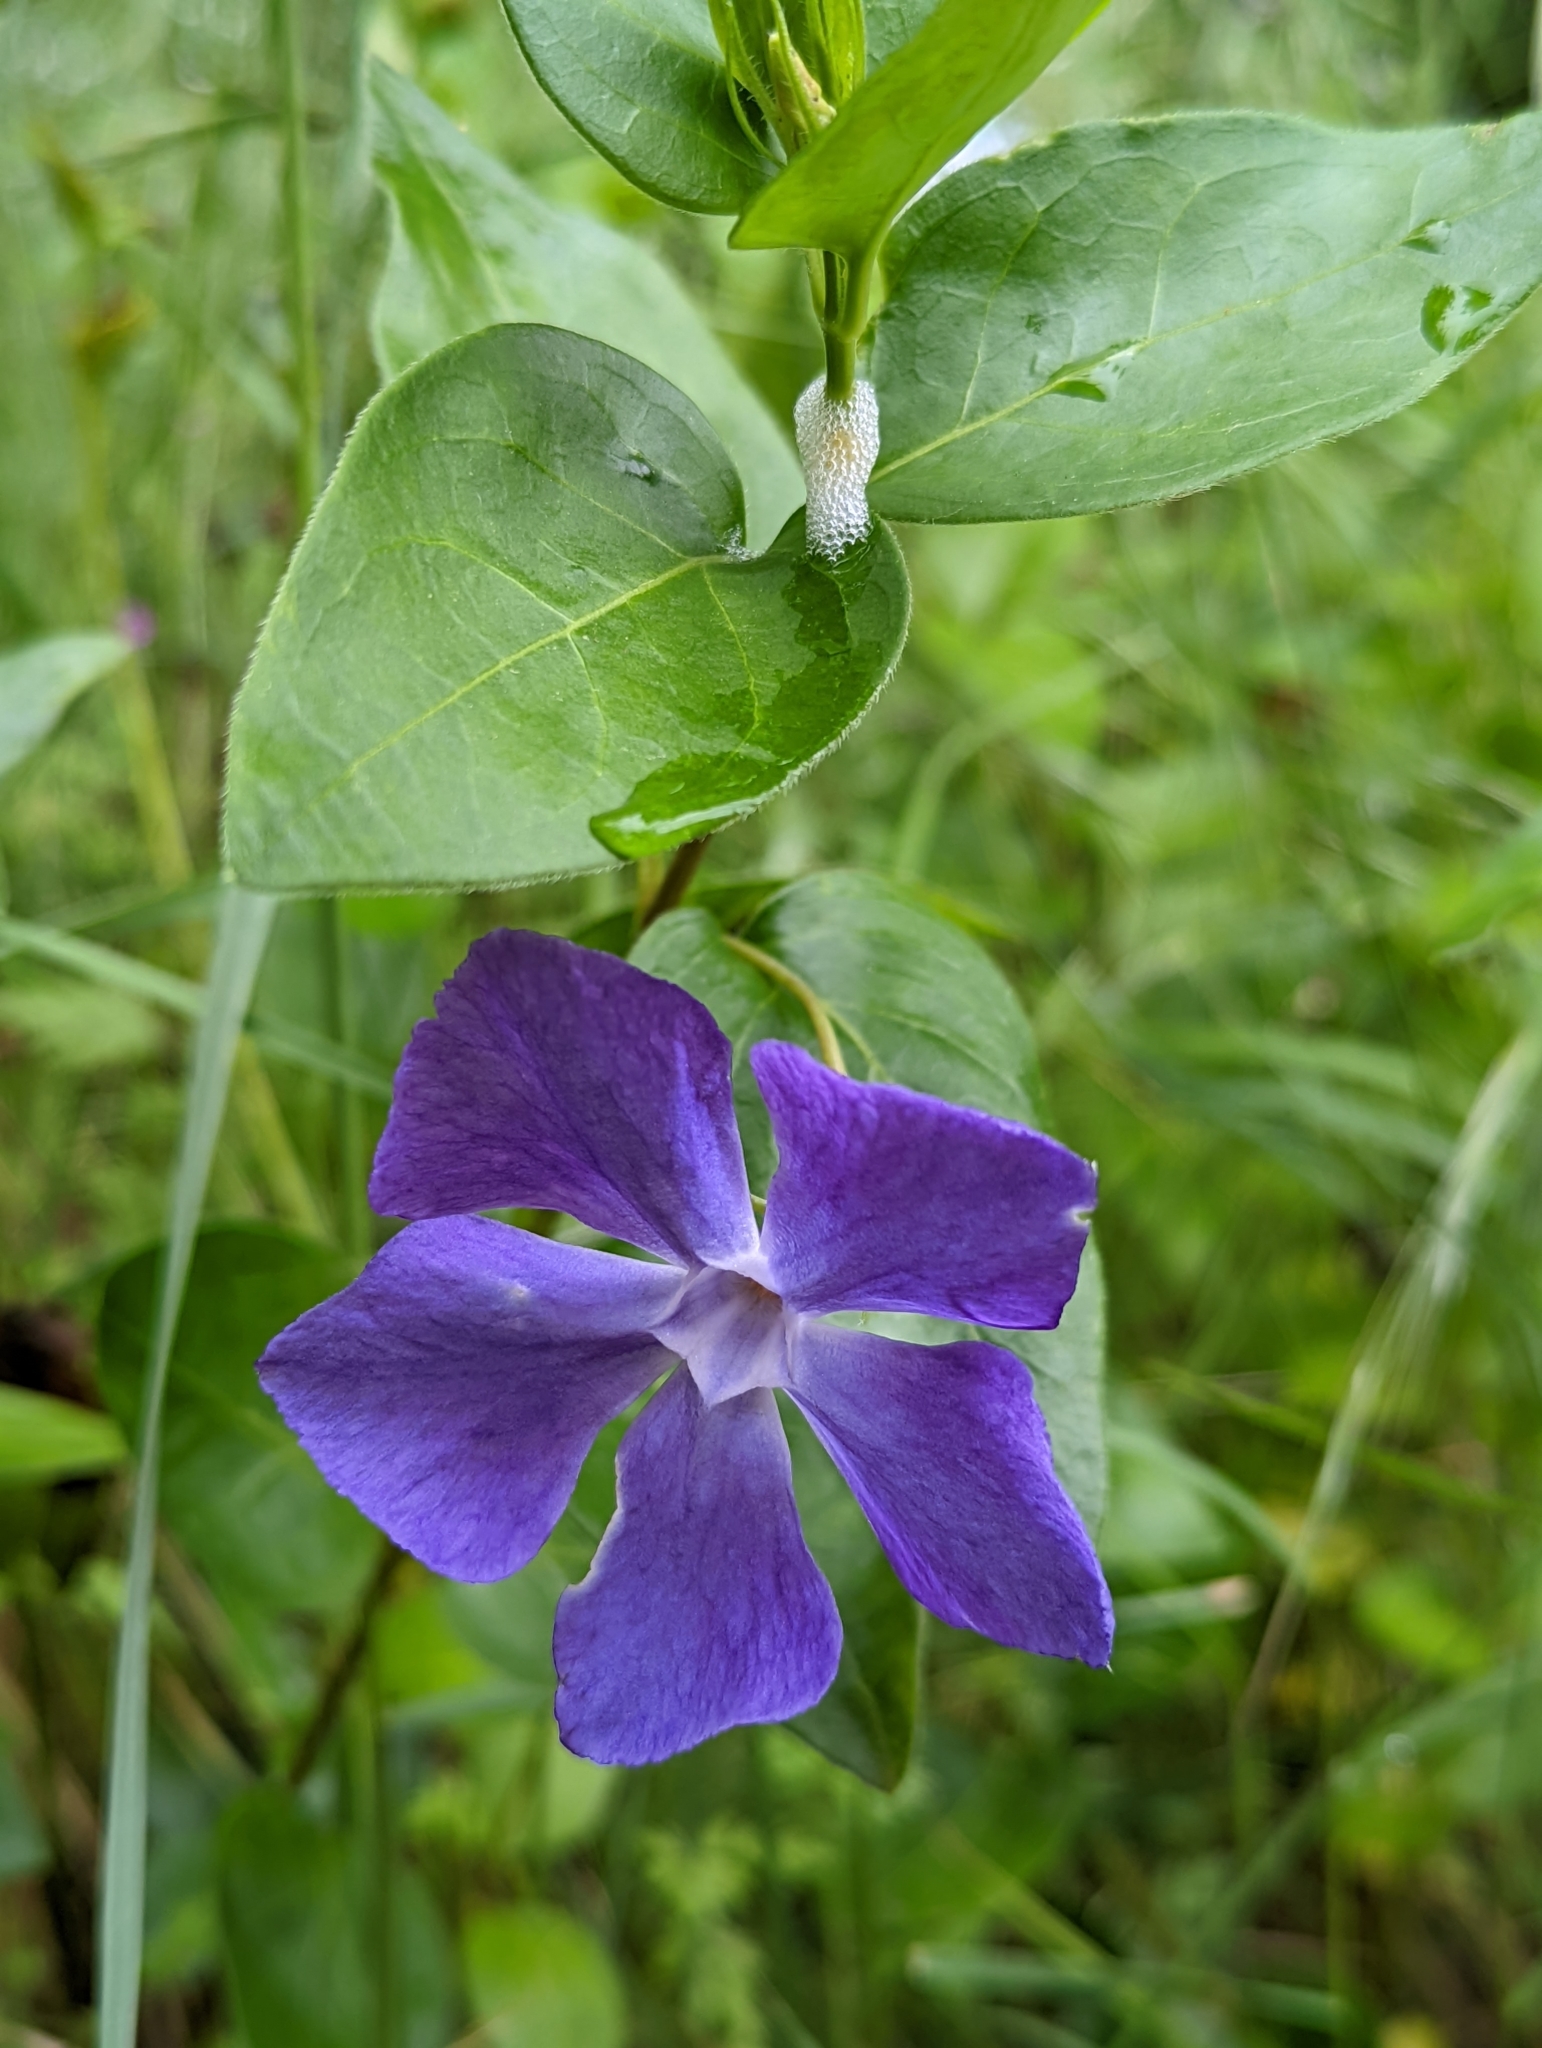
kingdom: Plantae
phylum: Tracheophyta
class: Magnoliopsida
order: Gentianales
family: Apocynaceae
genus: Vinca
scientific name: Vinca major
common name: Greater periwinkle
